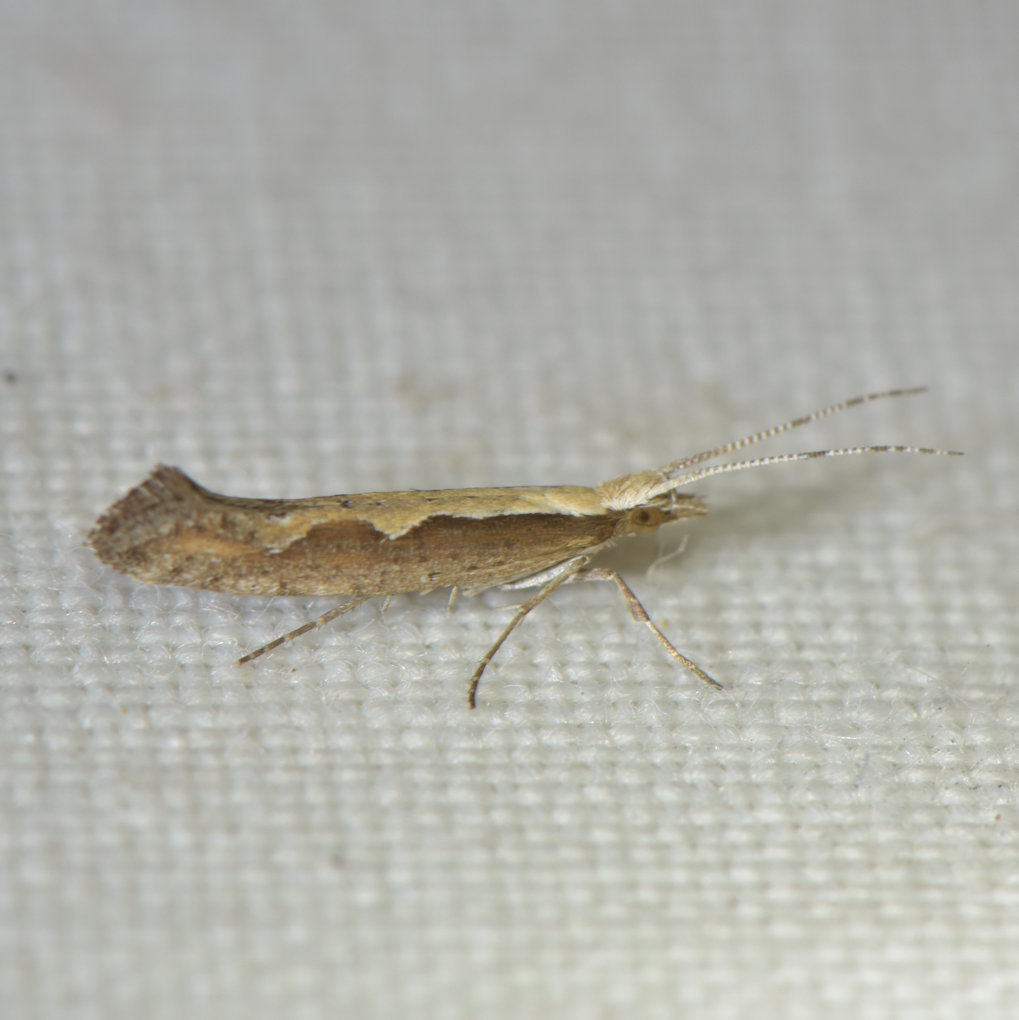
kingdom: Animalia
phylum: Arthropoda
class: Insecta
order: Lepidoptera
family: Plutellidae
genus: Plutella
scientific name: Plutella xylostella
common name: Diamond-back moth
